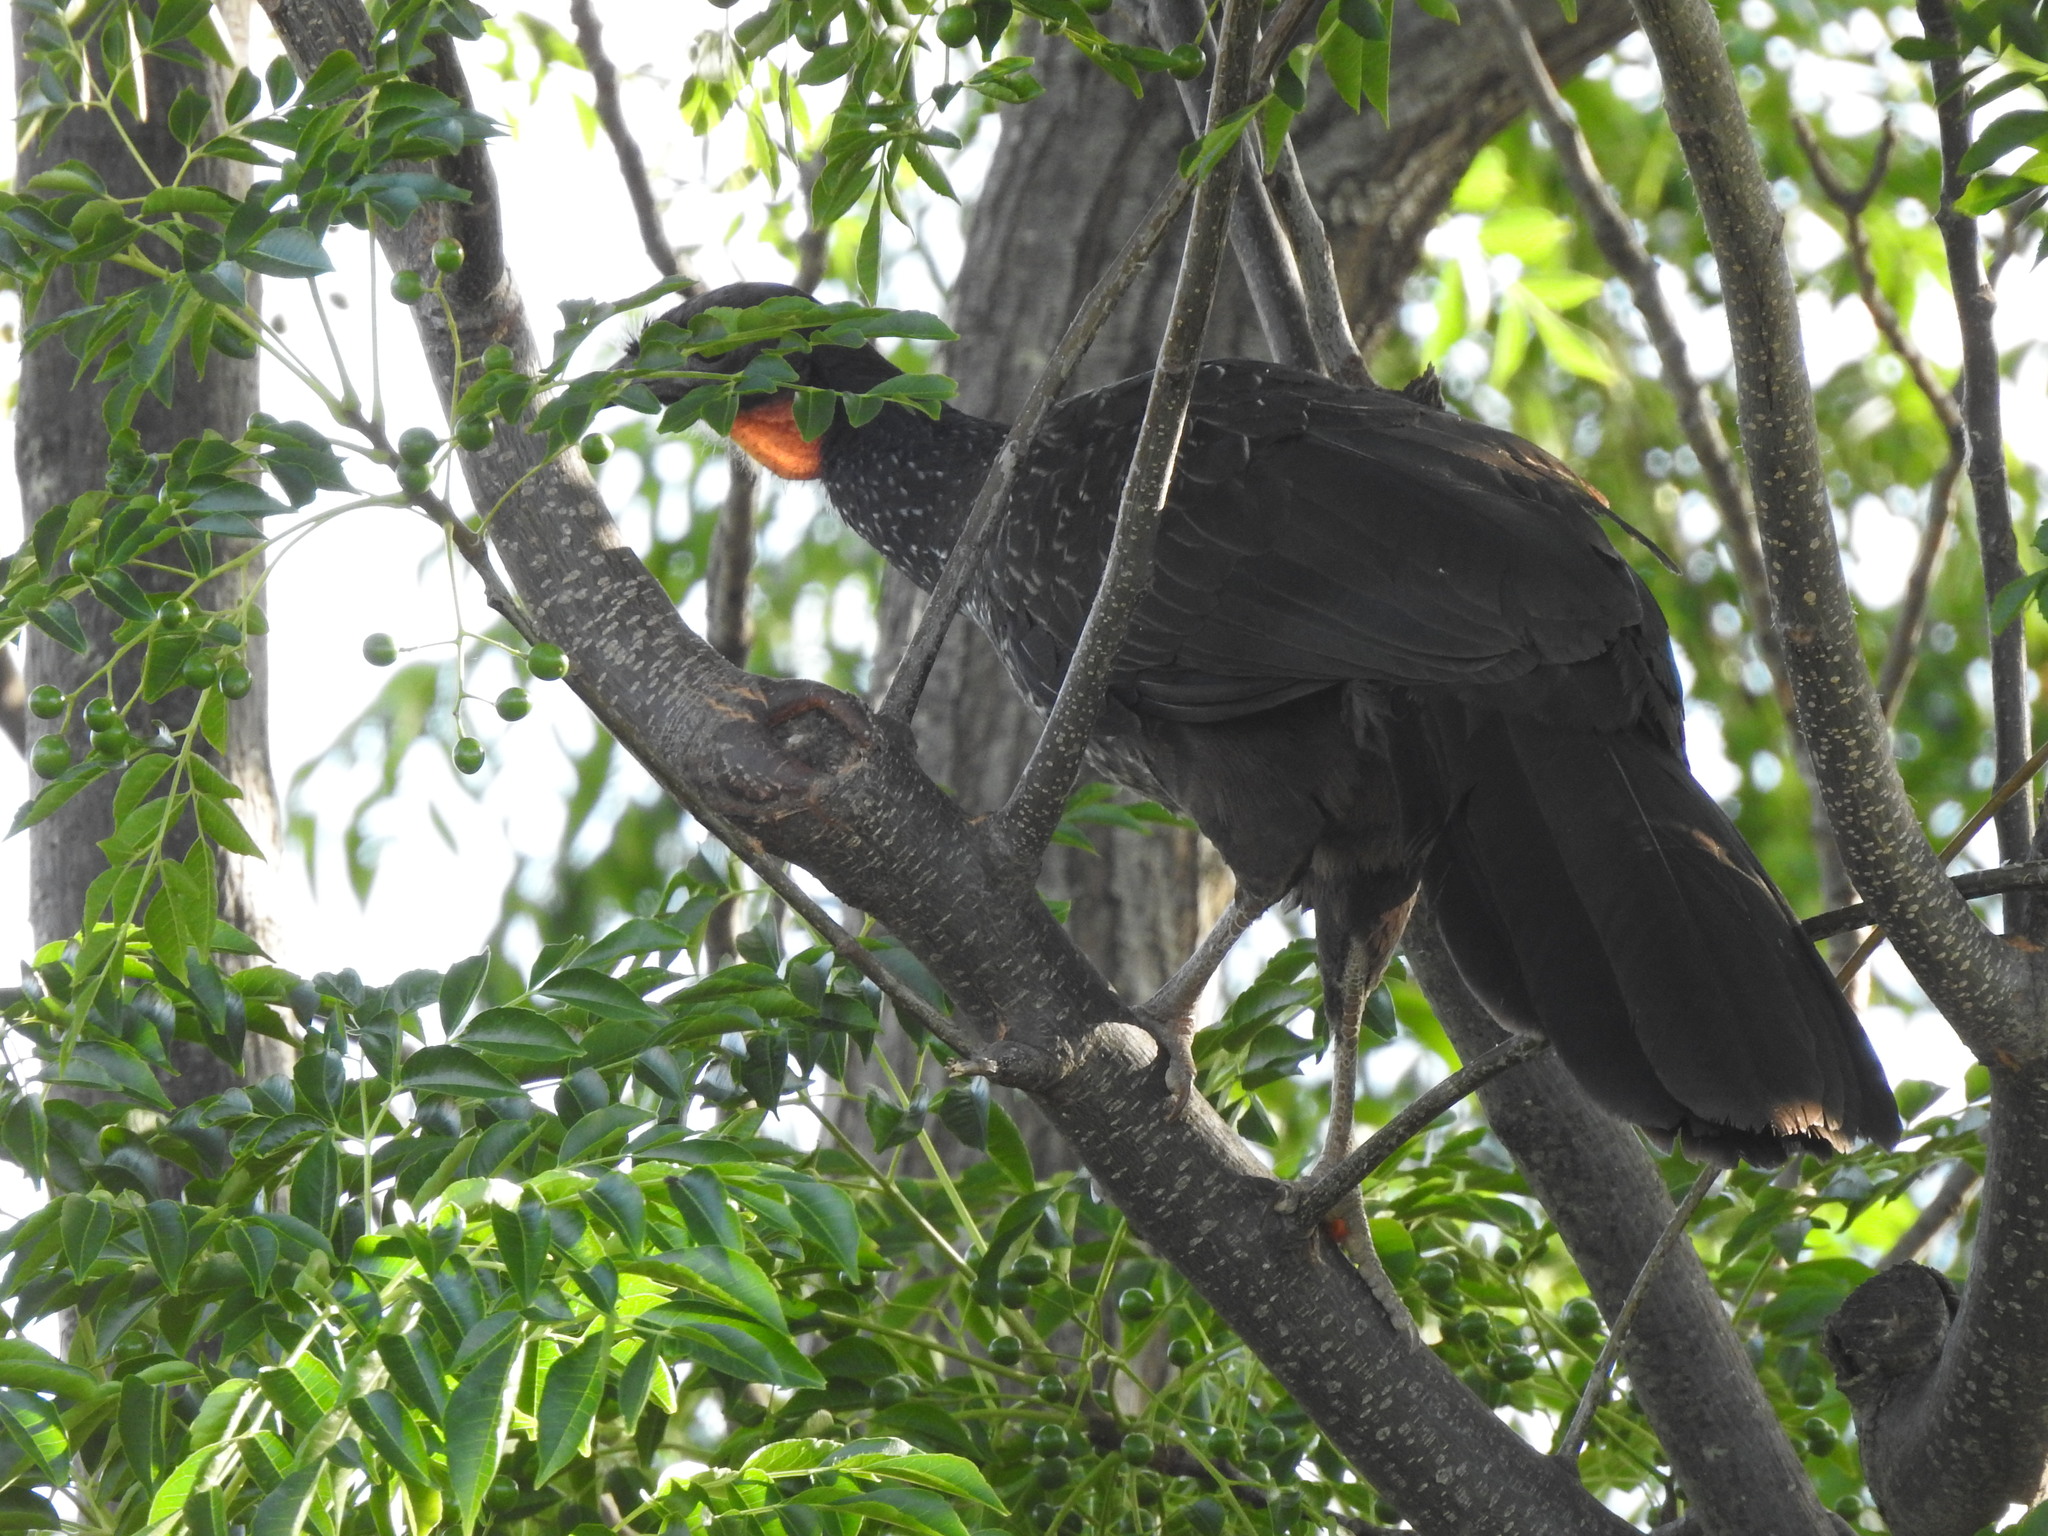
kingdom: Animalia
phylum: Chordata
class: Aves
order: Galliformes
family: Cracidae
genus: Penelope
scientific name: Penelope obscura
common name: Dusky-legged guan
